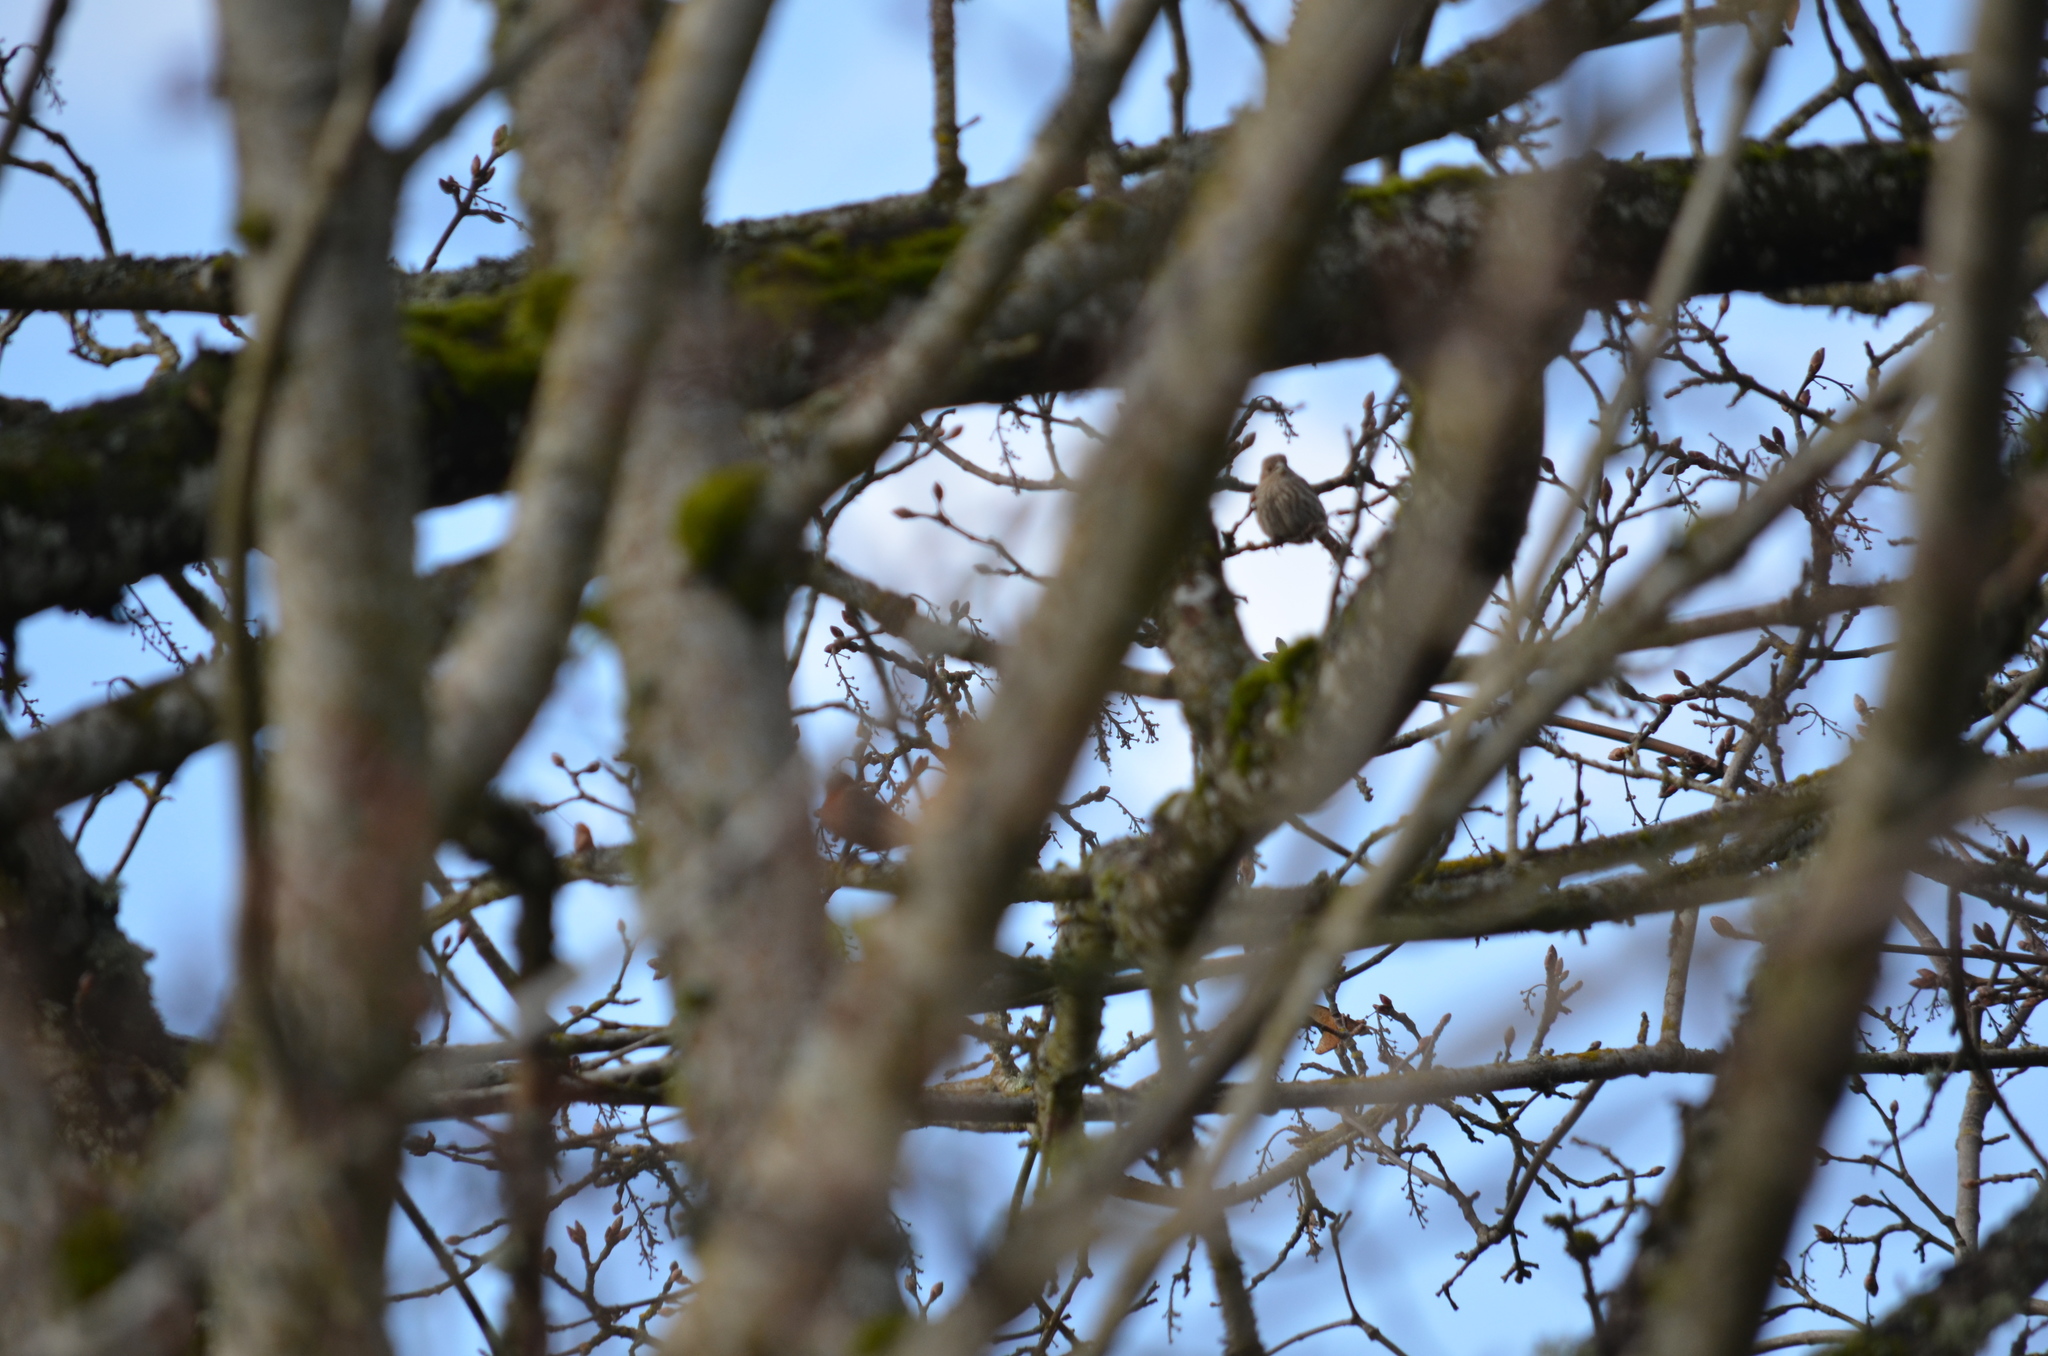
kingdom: Animalia
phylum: Chordata
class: Aves
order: Passeriformes
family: Fringillidae
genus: Haemorhous
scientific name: Haemorhous mexicanus
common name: House finch
